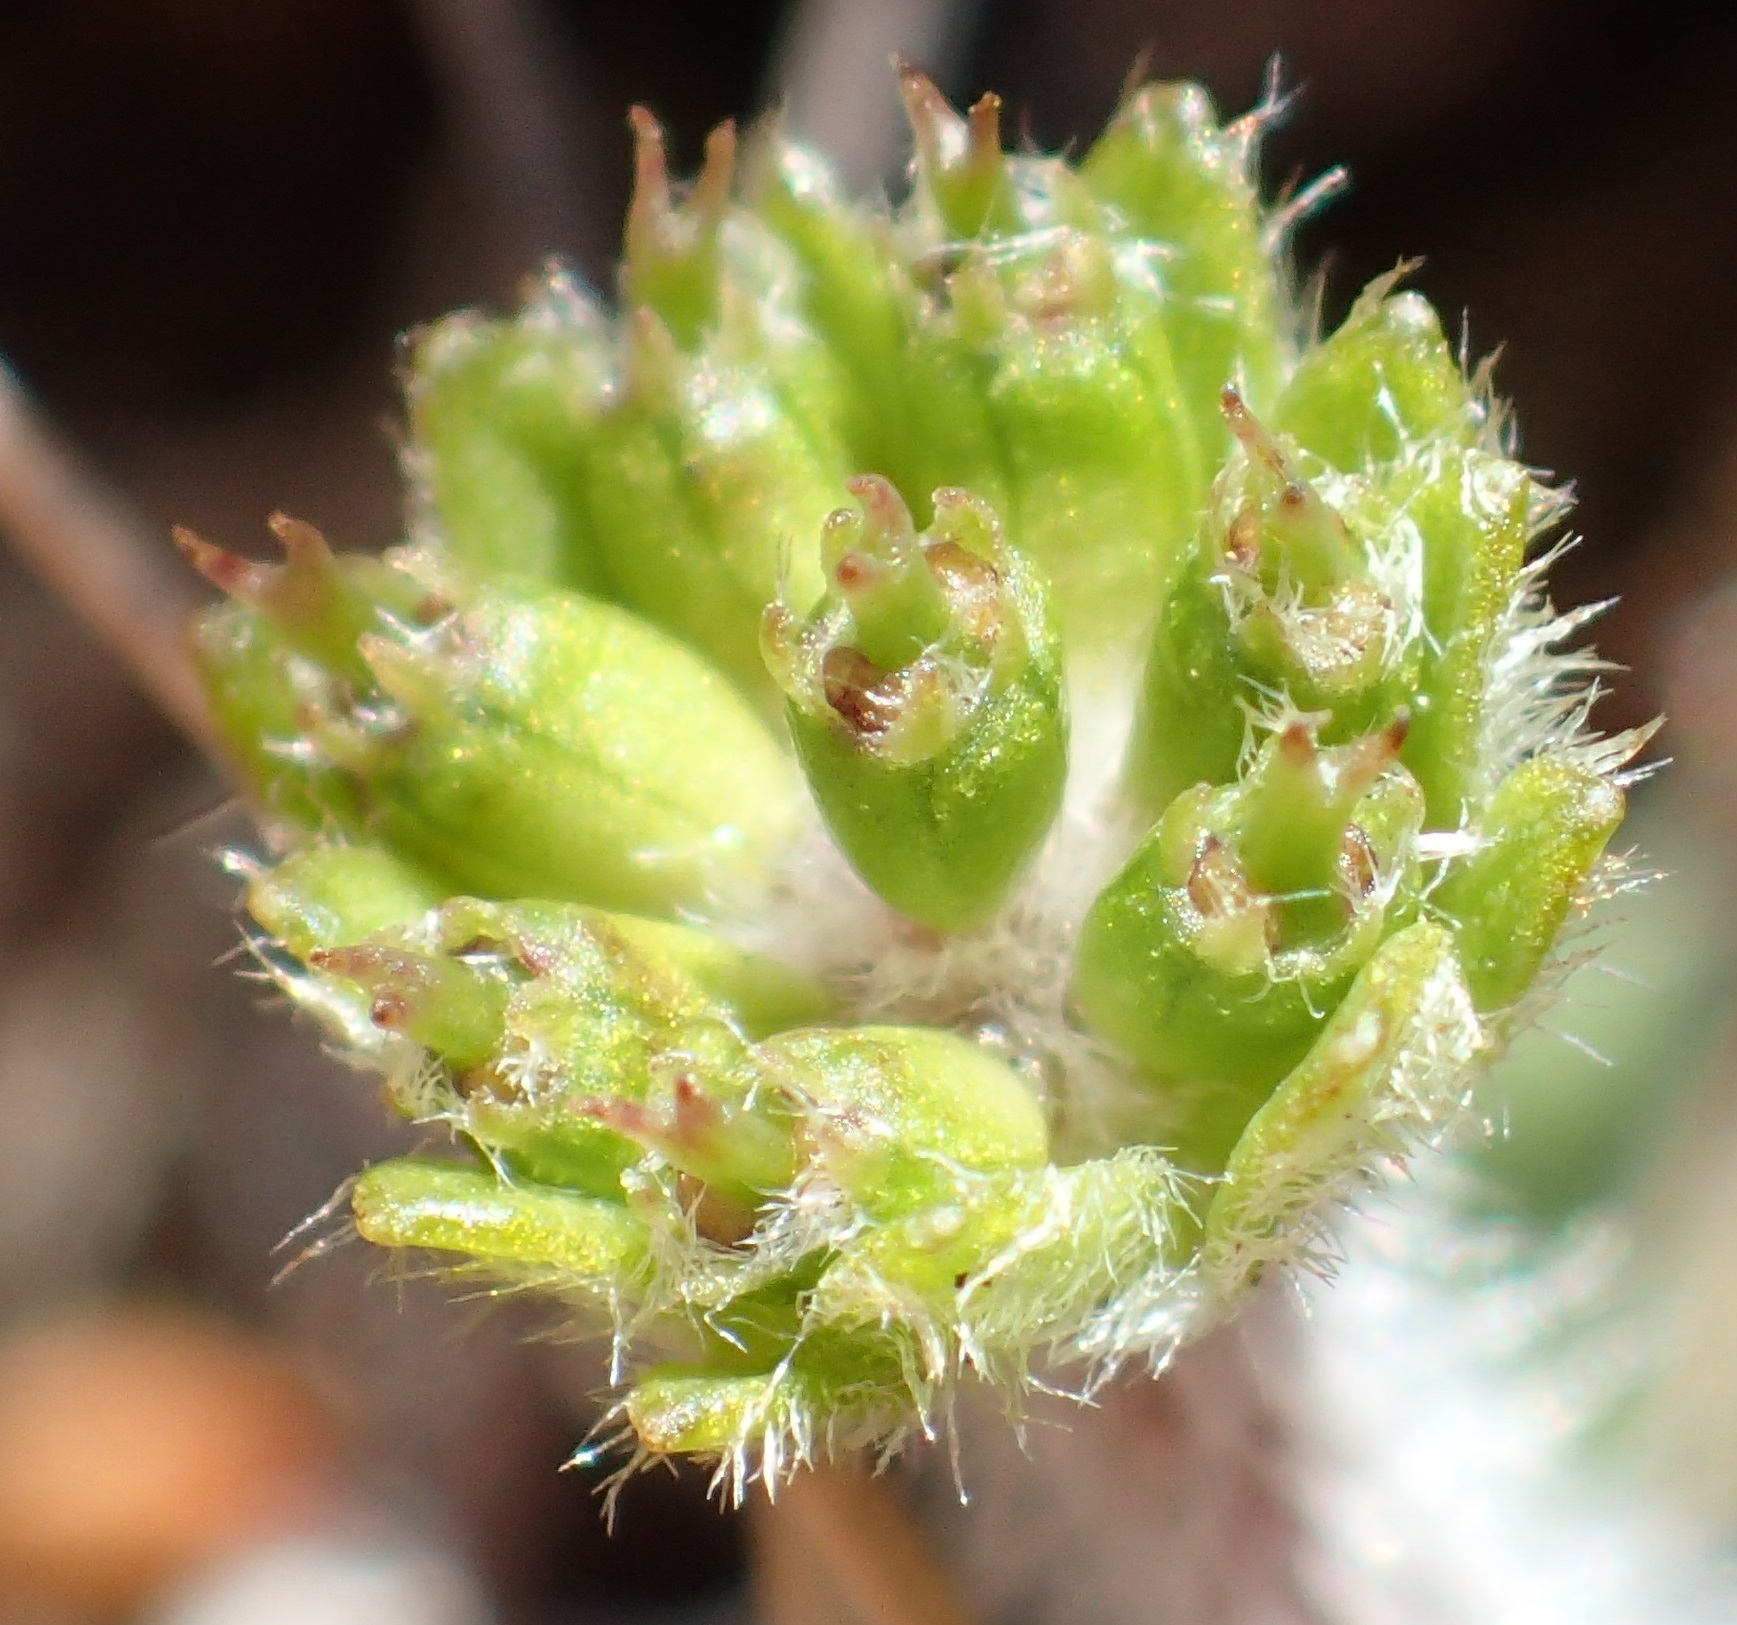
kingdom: Plantae
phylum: Tracheophyta
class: Magnoliopsida
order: Apiales
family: Apiaceae
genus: Actinotus
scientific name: Actinotus bellidioides
